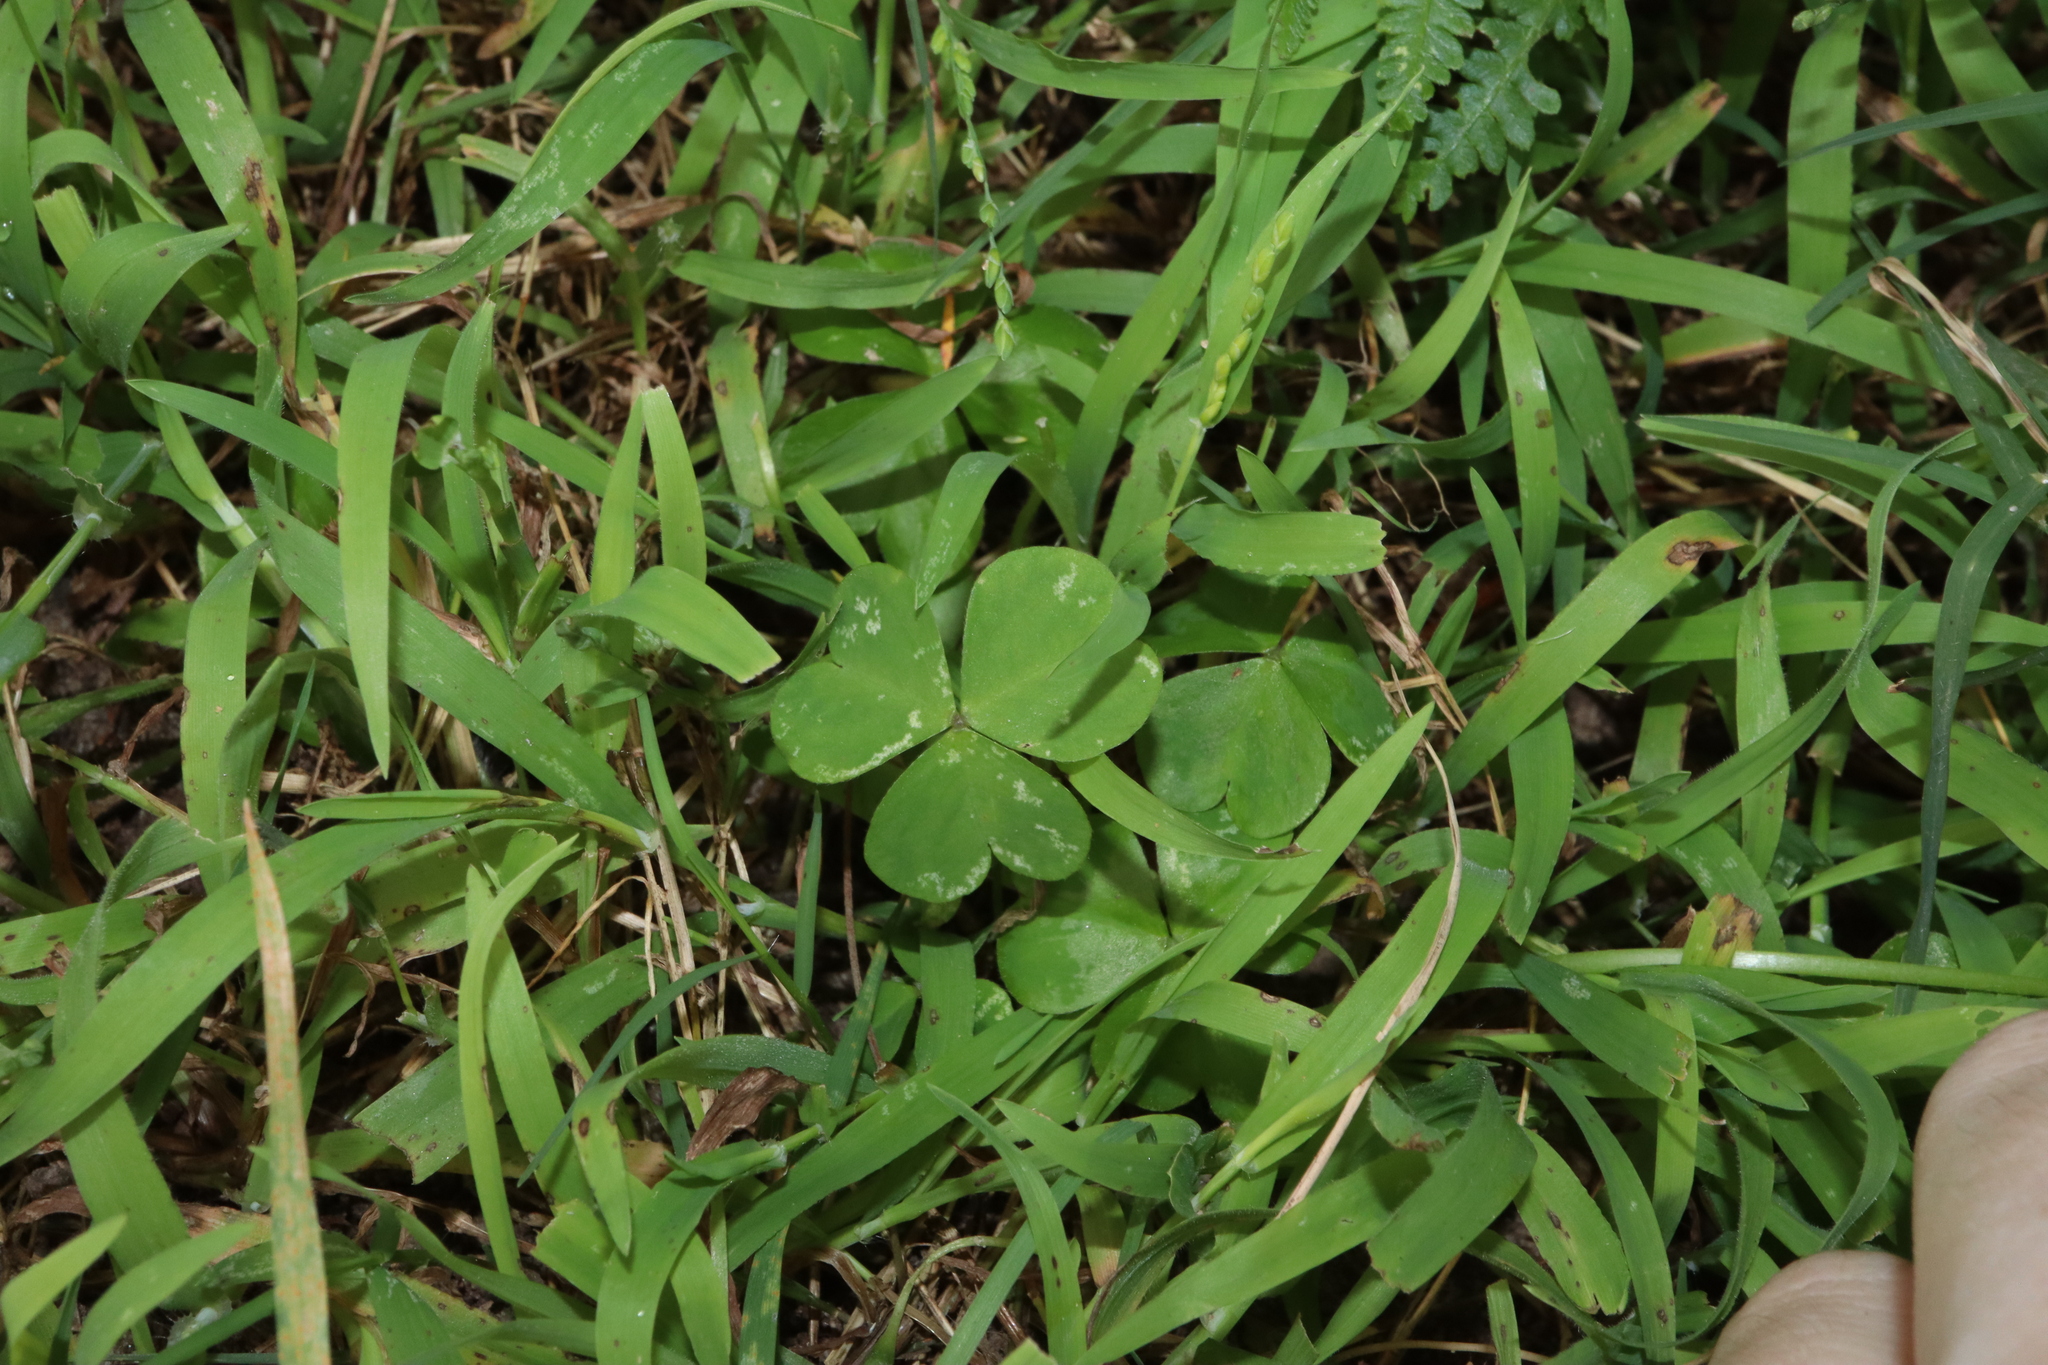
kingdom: Plantae
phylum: Tracheophyta
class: Magnoliopsida
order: Oxalidales
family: Oxalidaceae
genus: Oxalis
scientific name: Oxalis debilis
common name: Large-flowered pink-sorrel
